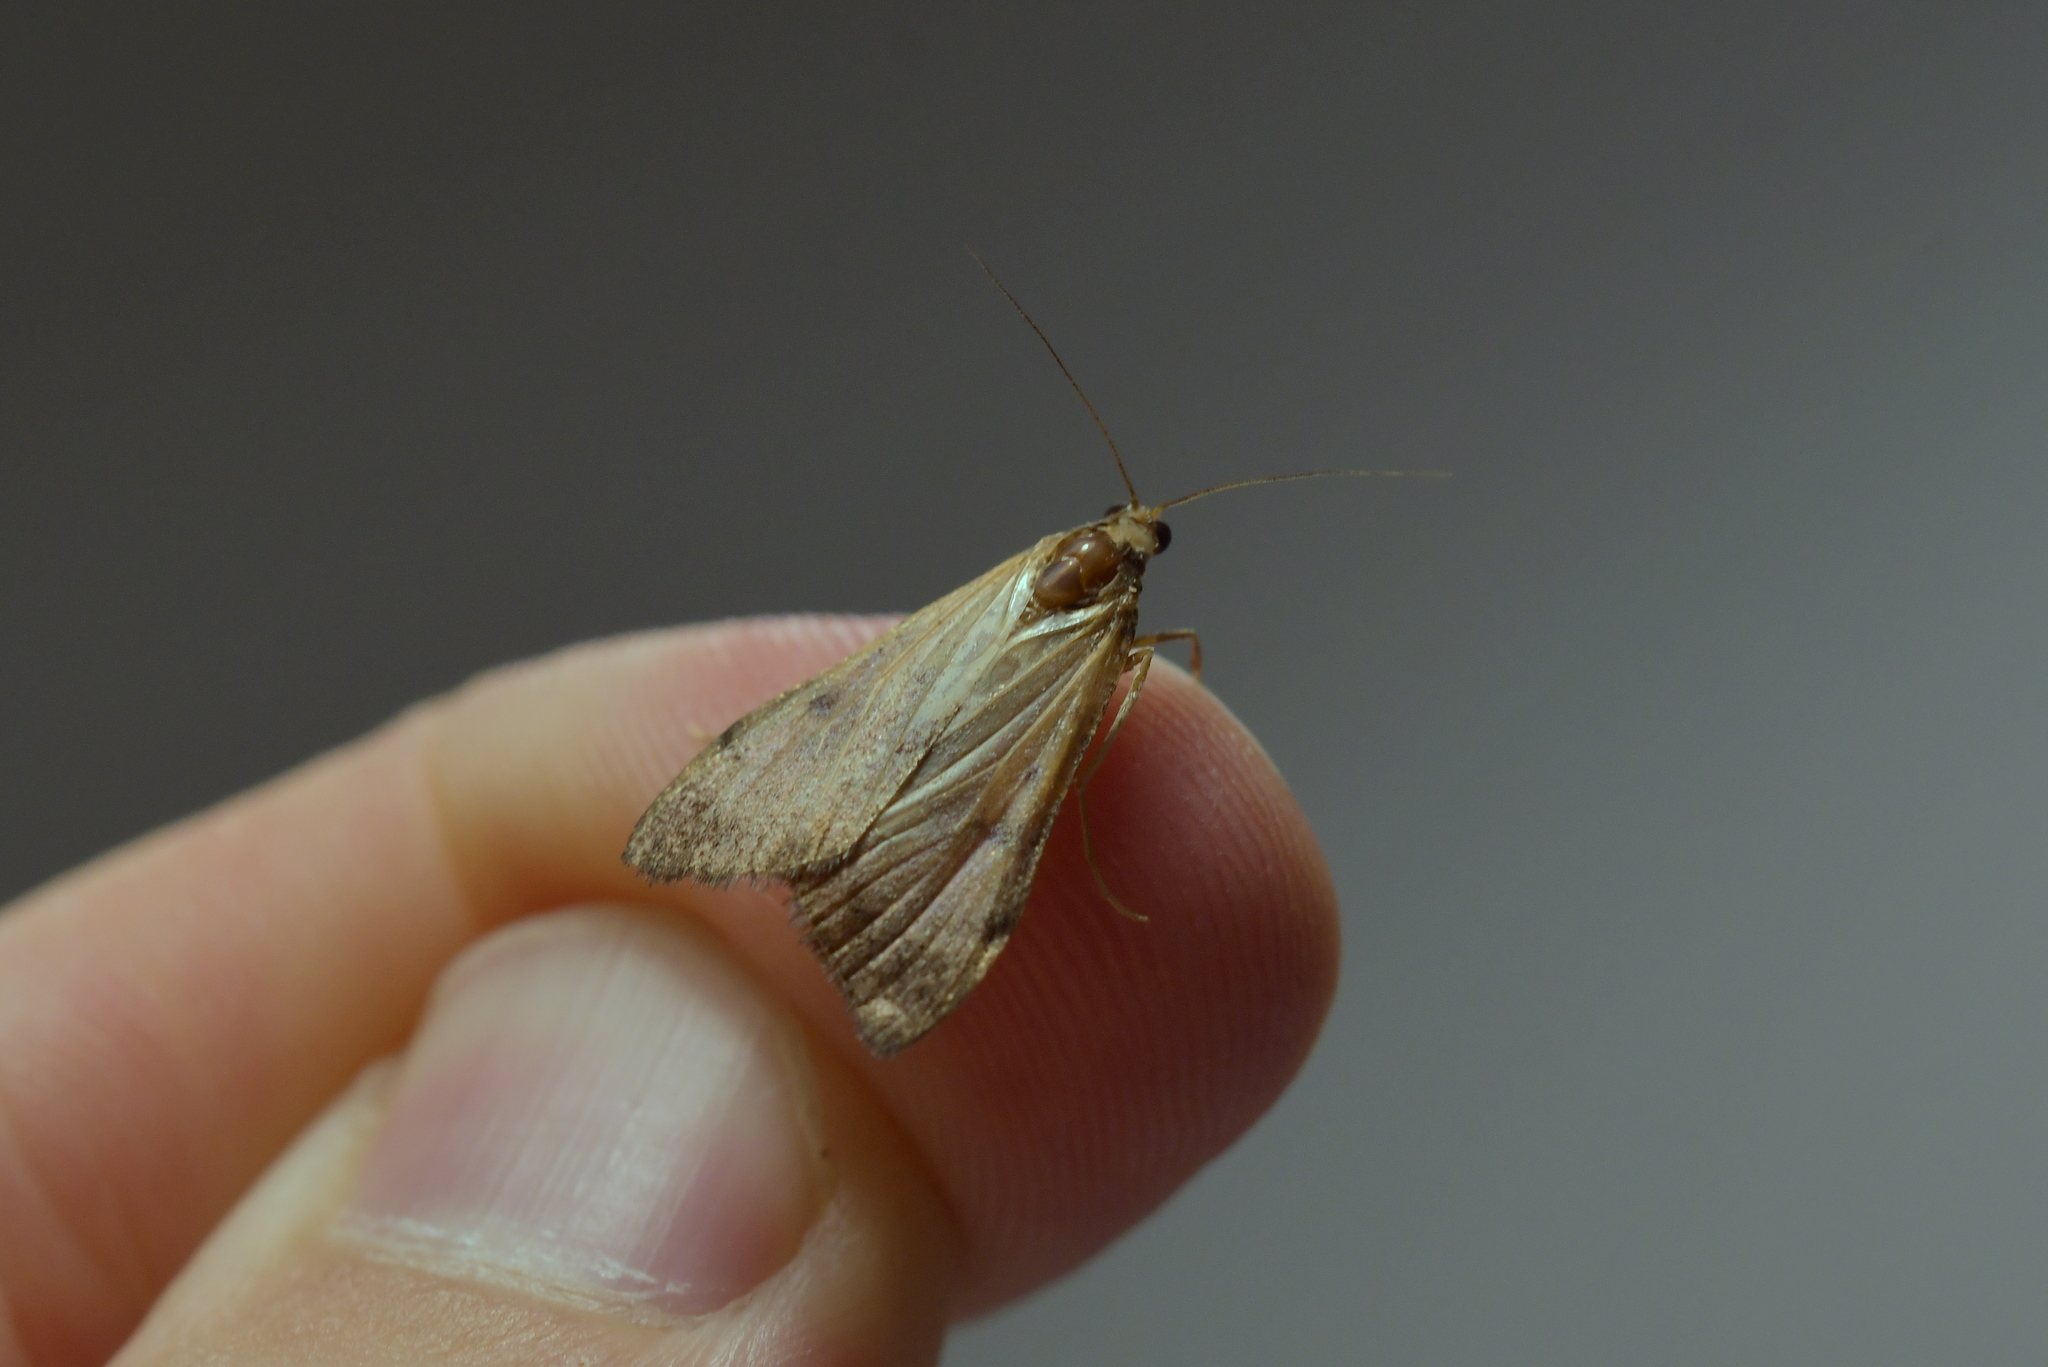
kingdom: Animalia
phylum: Arthropoda
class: Insecta
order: Lepidoptera
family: Crambidae
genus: Achyra
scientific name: Achyra affinitalis
